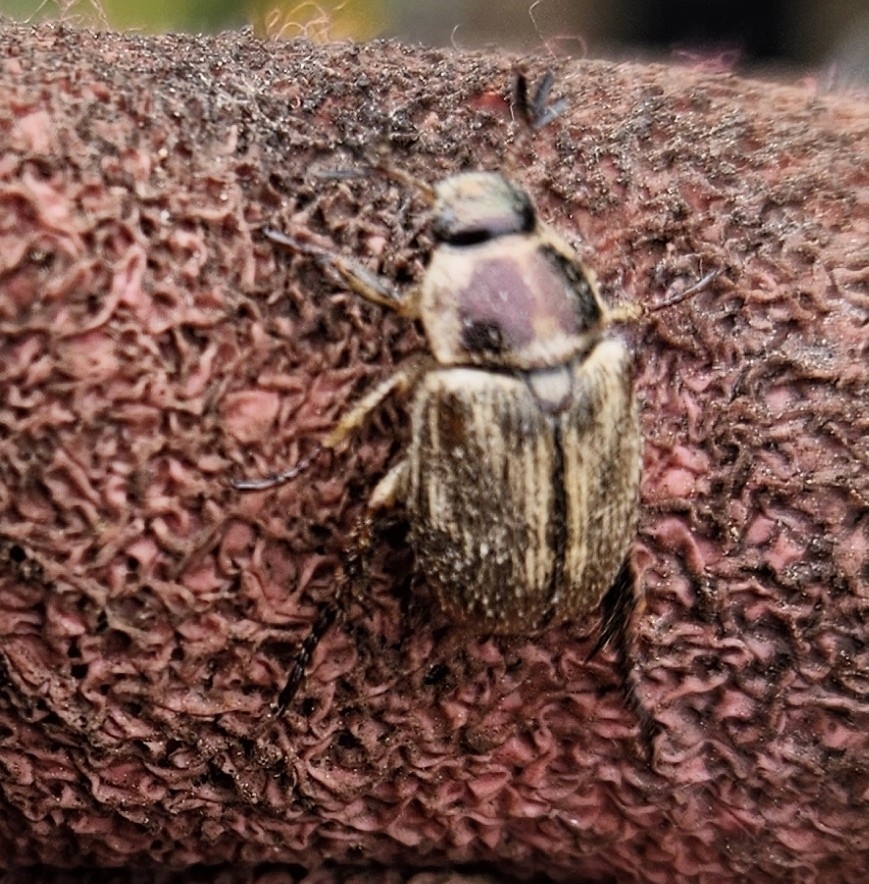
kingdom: Animalia
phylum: Arthropoda
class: Insecta
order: Coleoptera
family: Scarabaeidae
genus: Exomala
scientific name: Exomala orientalis
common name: Oriental beetle
